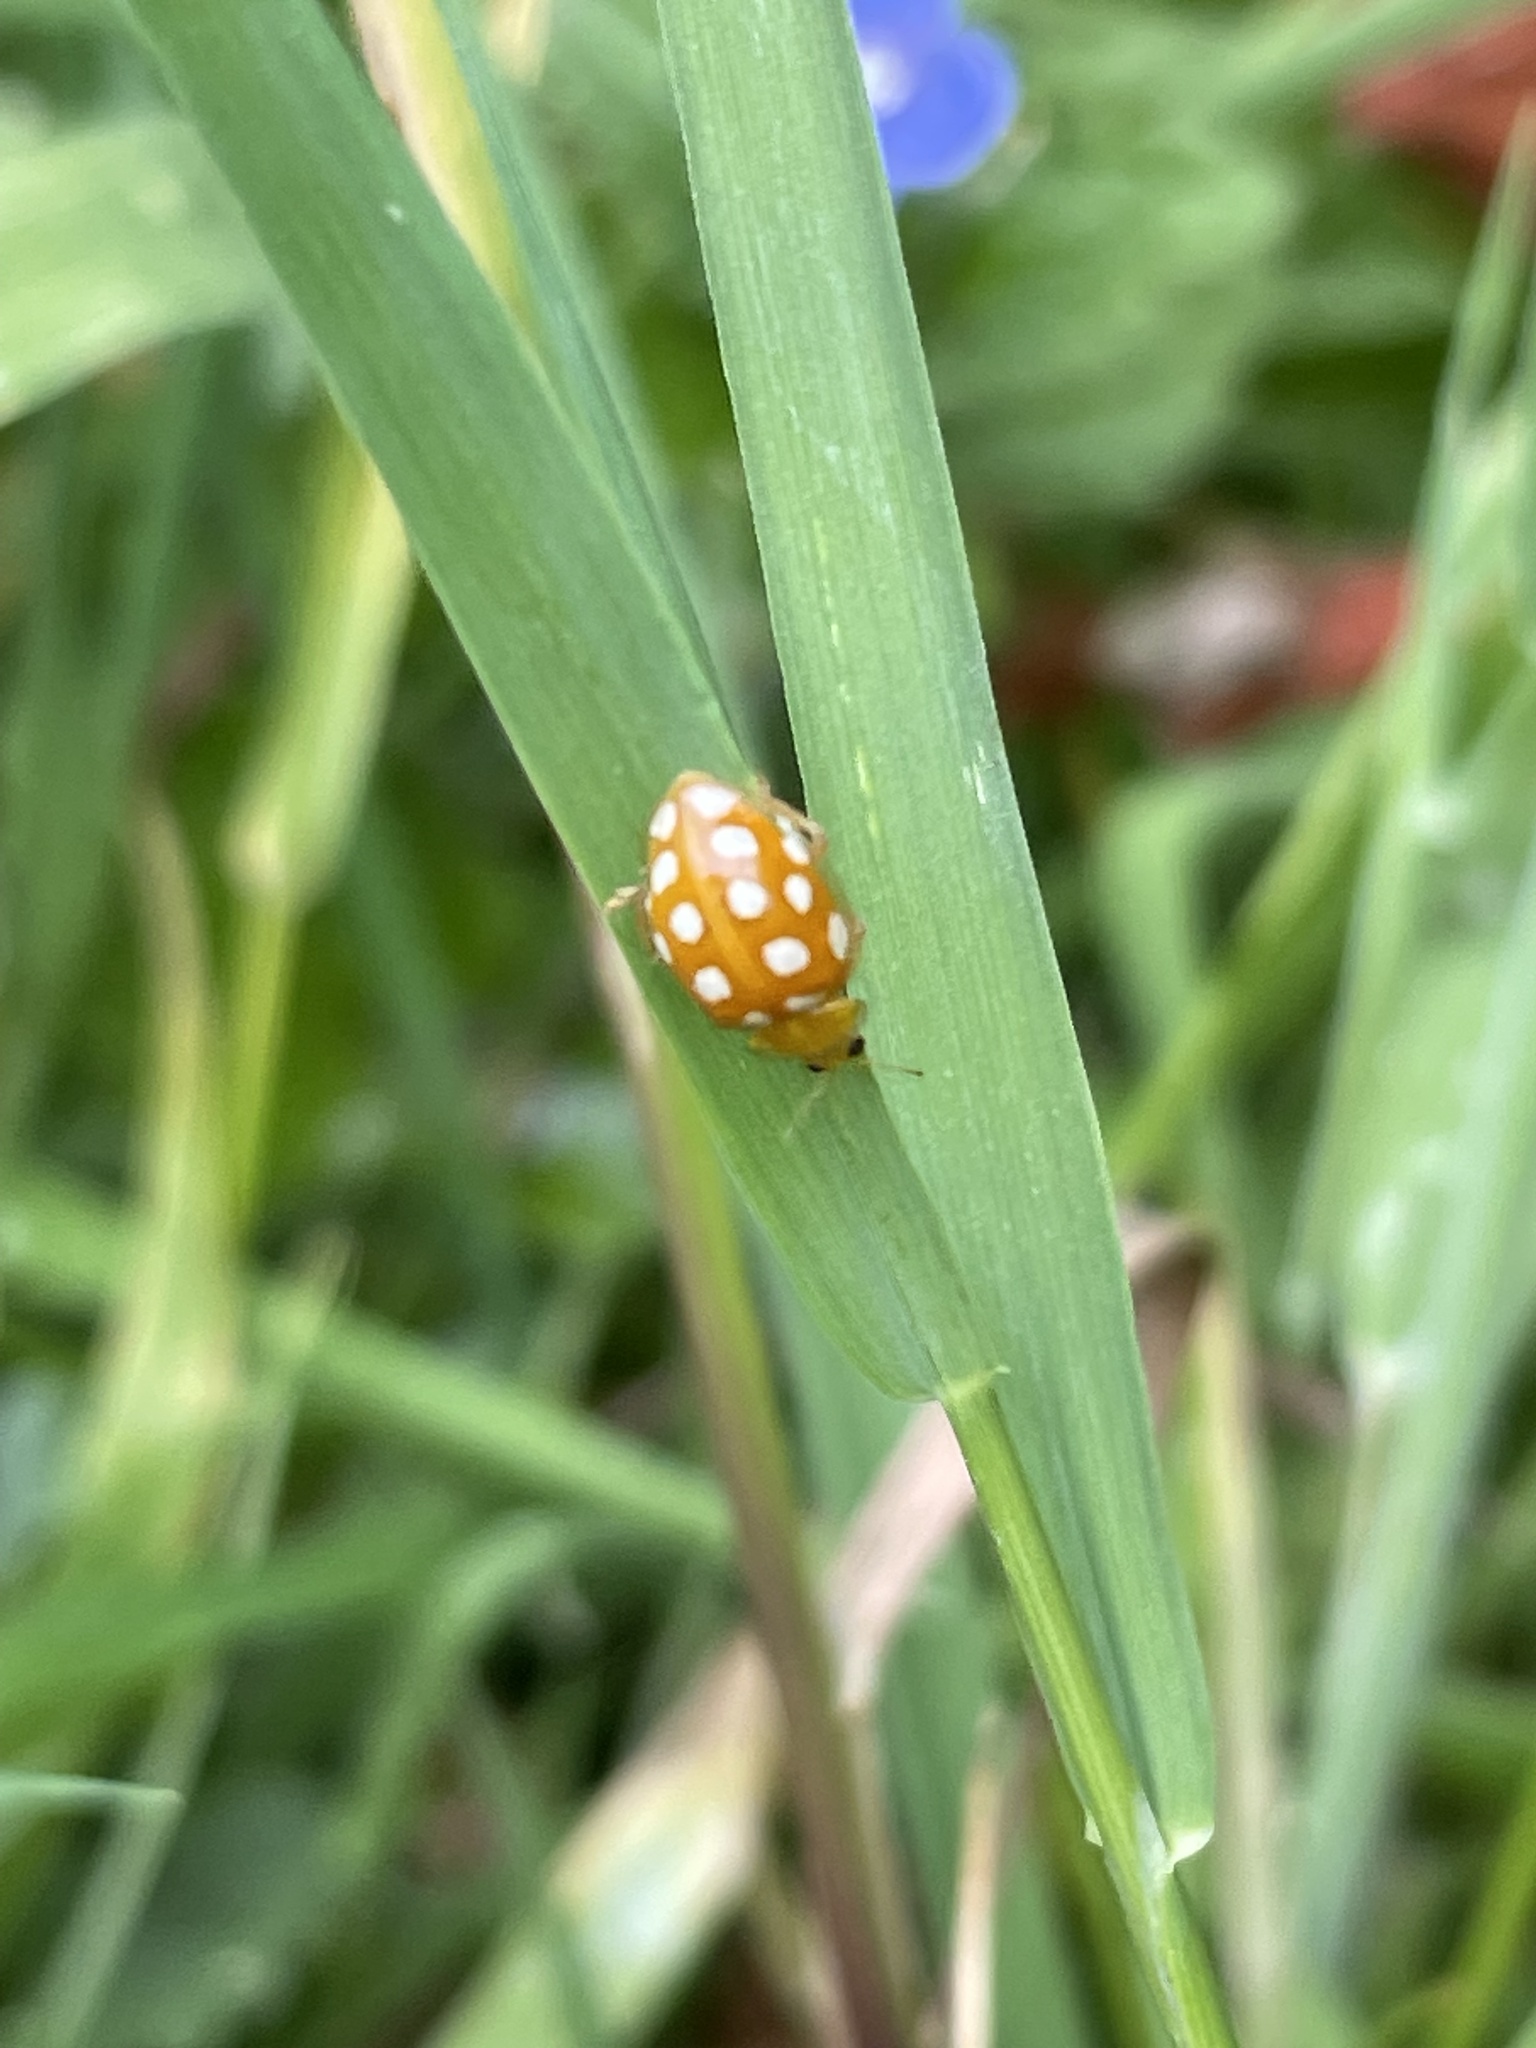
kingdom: Animalia
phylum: Arthropoda
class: Insecta
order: Coleoptera
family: Coccinellidae
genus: Halyzia
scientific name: Halyzia sedecimguttata
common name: Orange ladybird
